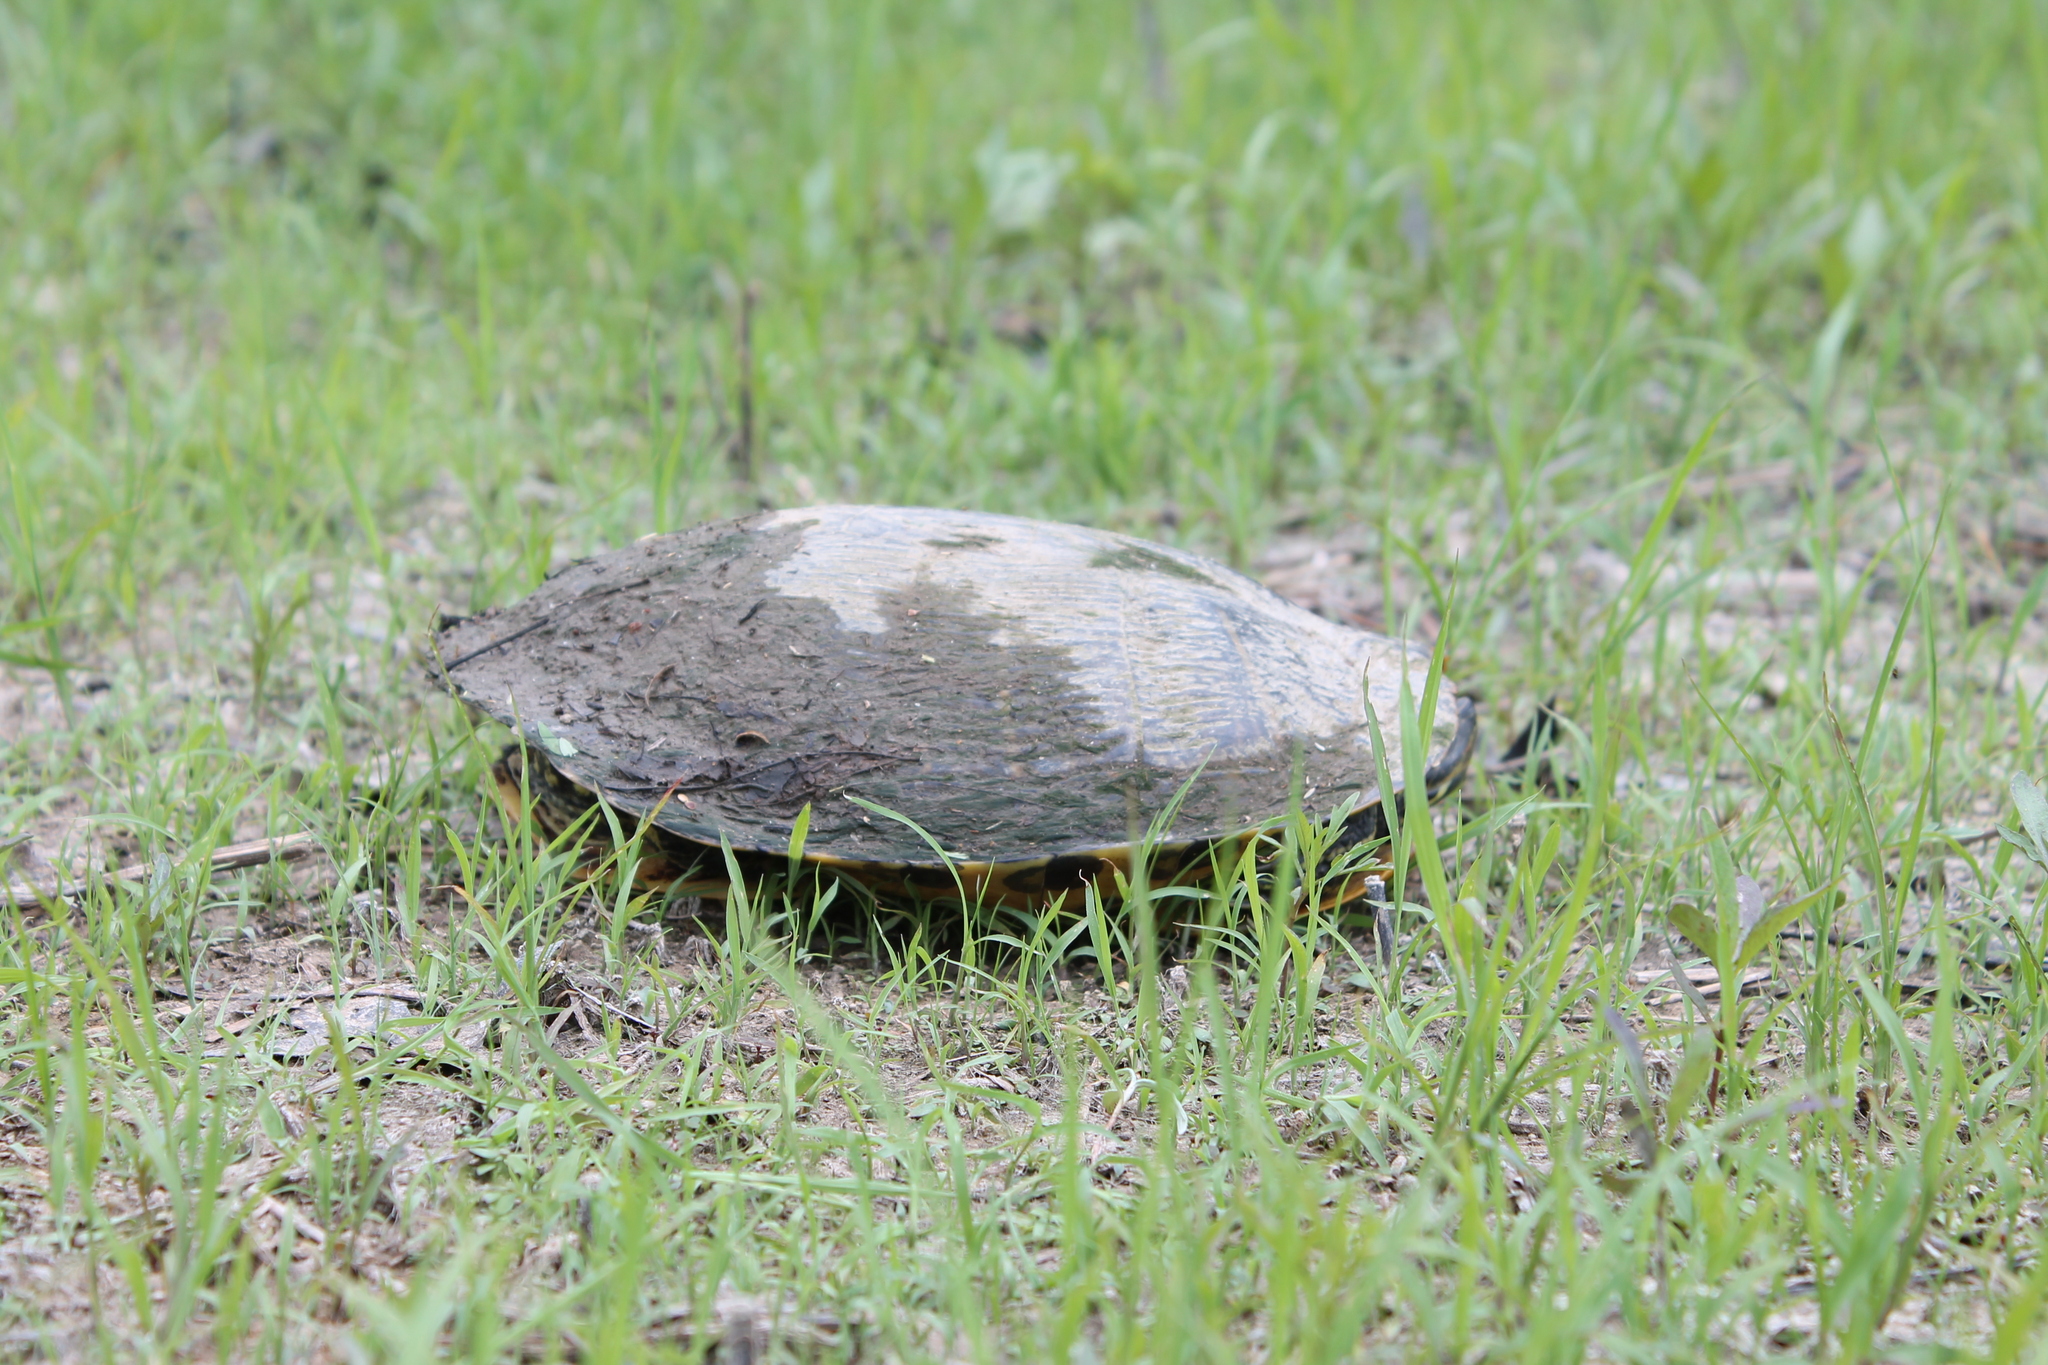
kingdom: Animalia
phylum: Chordata
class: Testudines
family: Emydidae
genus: Trachemys
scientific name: Trachemys scripta
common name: Slider
